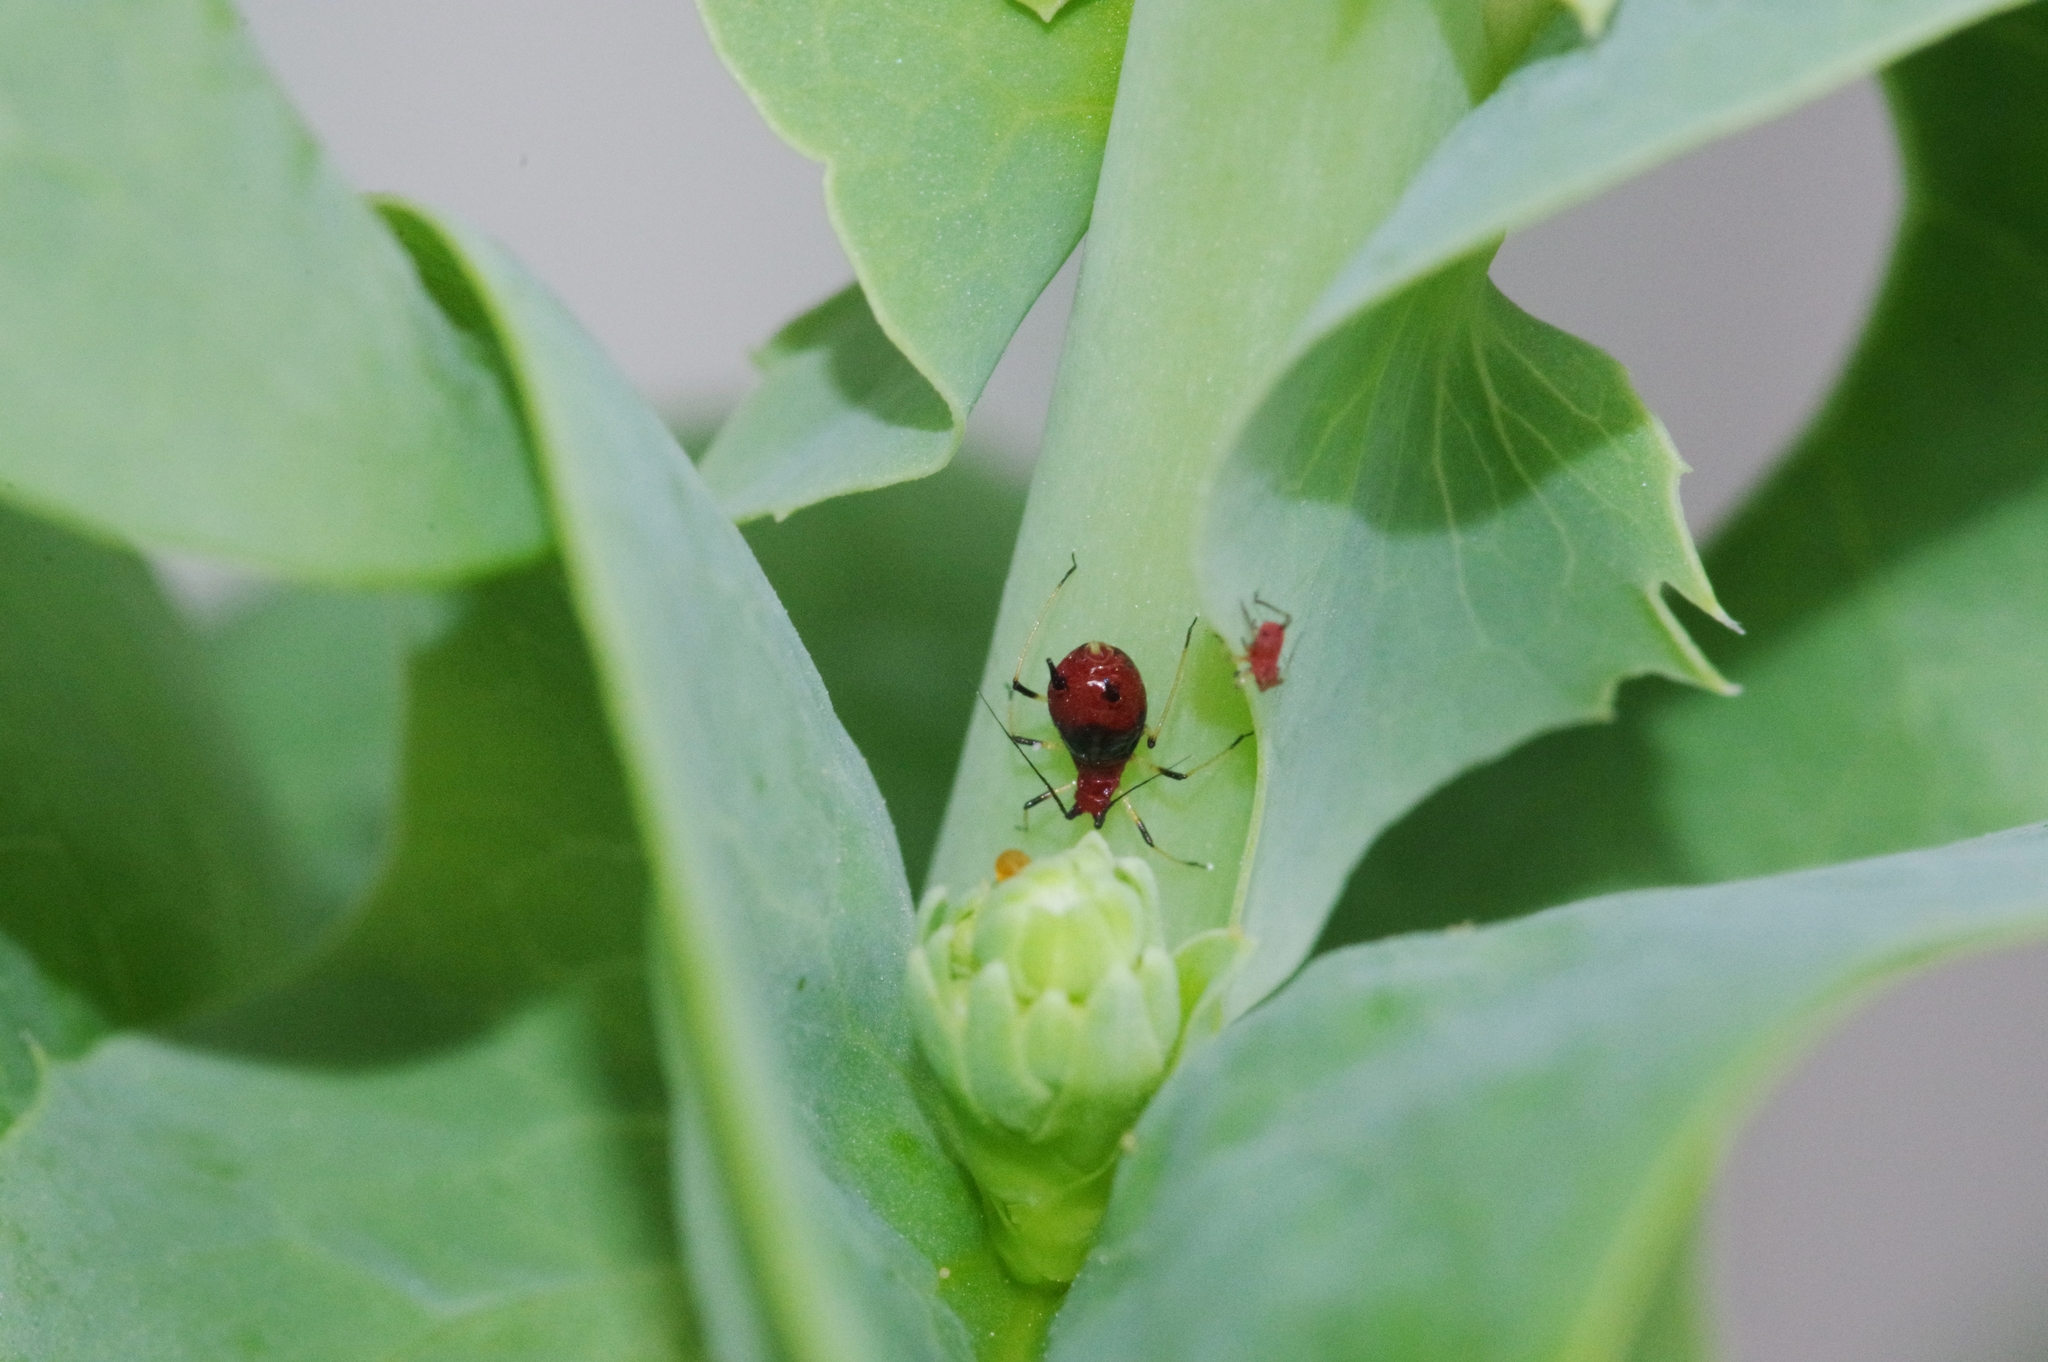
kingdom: Animalia
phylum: Arthropoda
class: Insecta
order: Hemiptera
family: Aphididae
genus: Uroleucon
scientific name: Uroleucon formosanum
